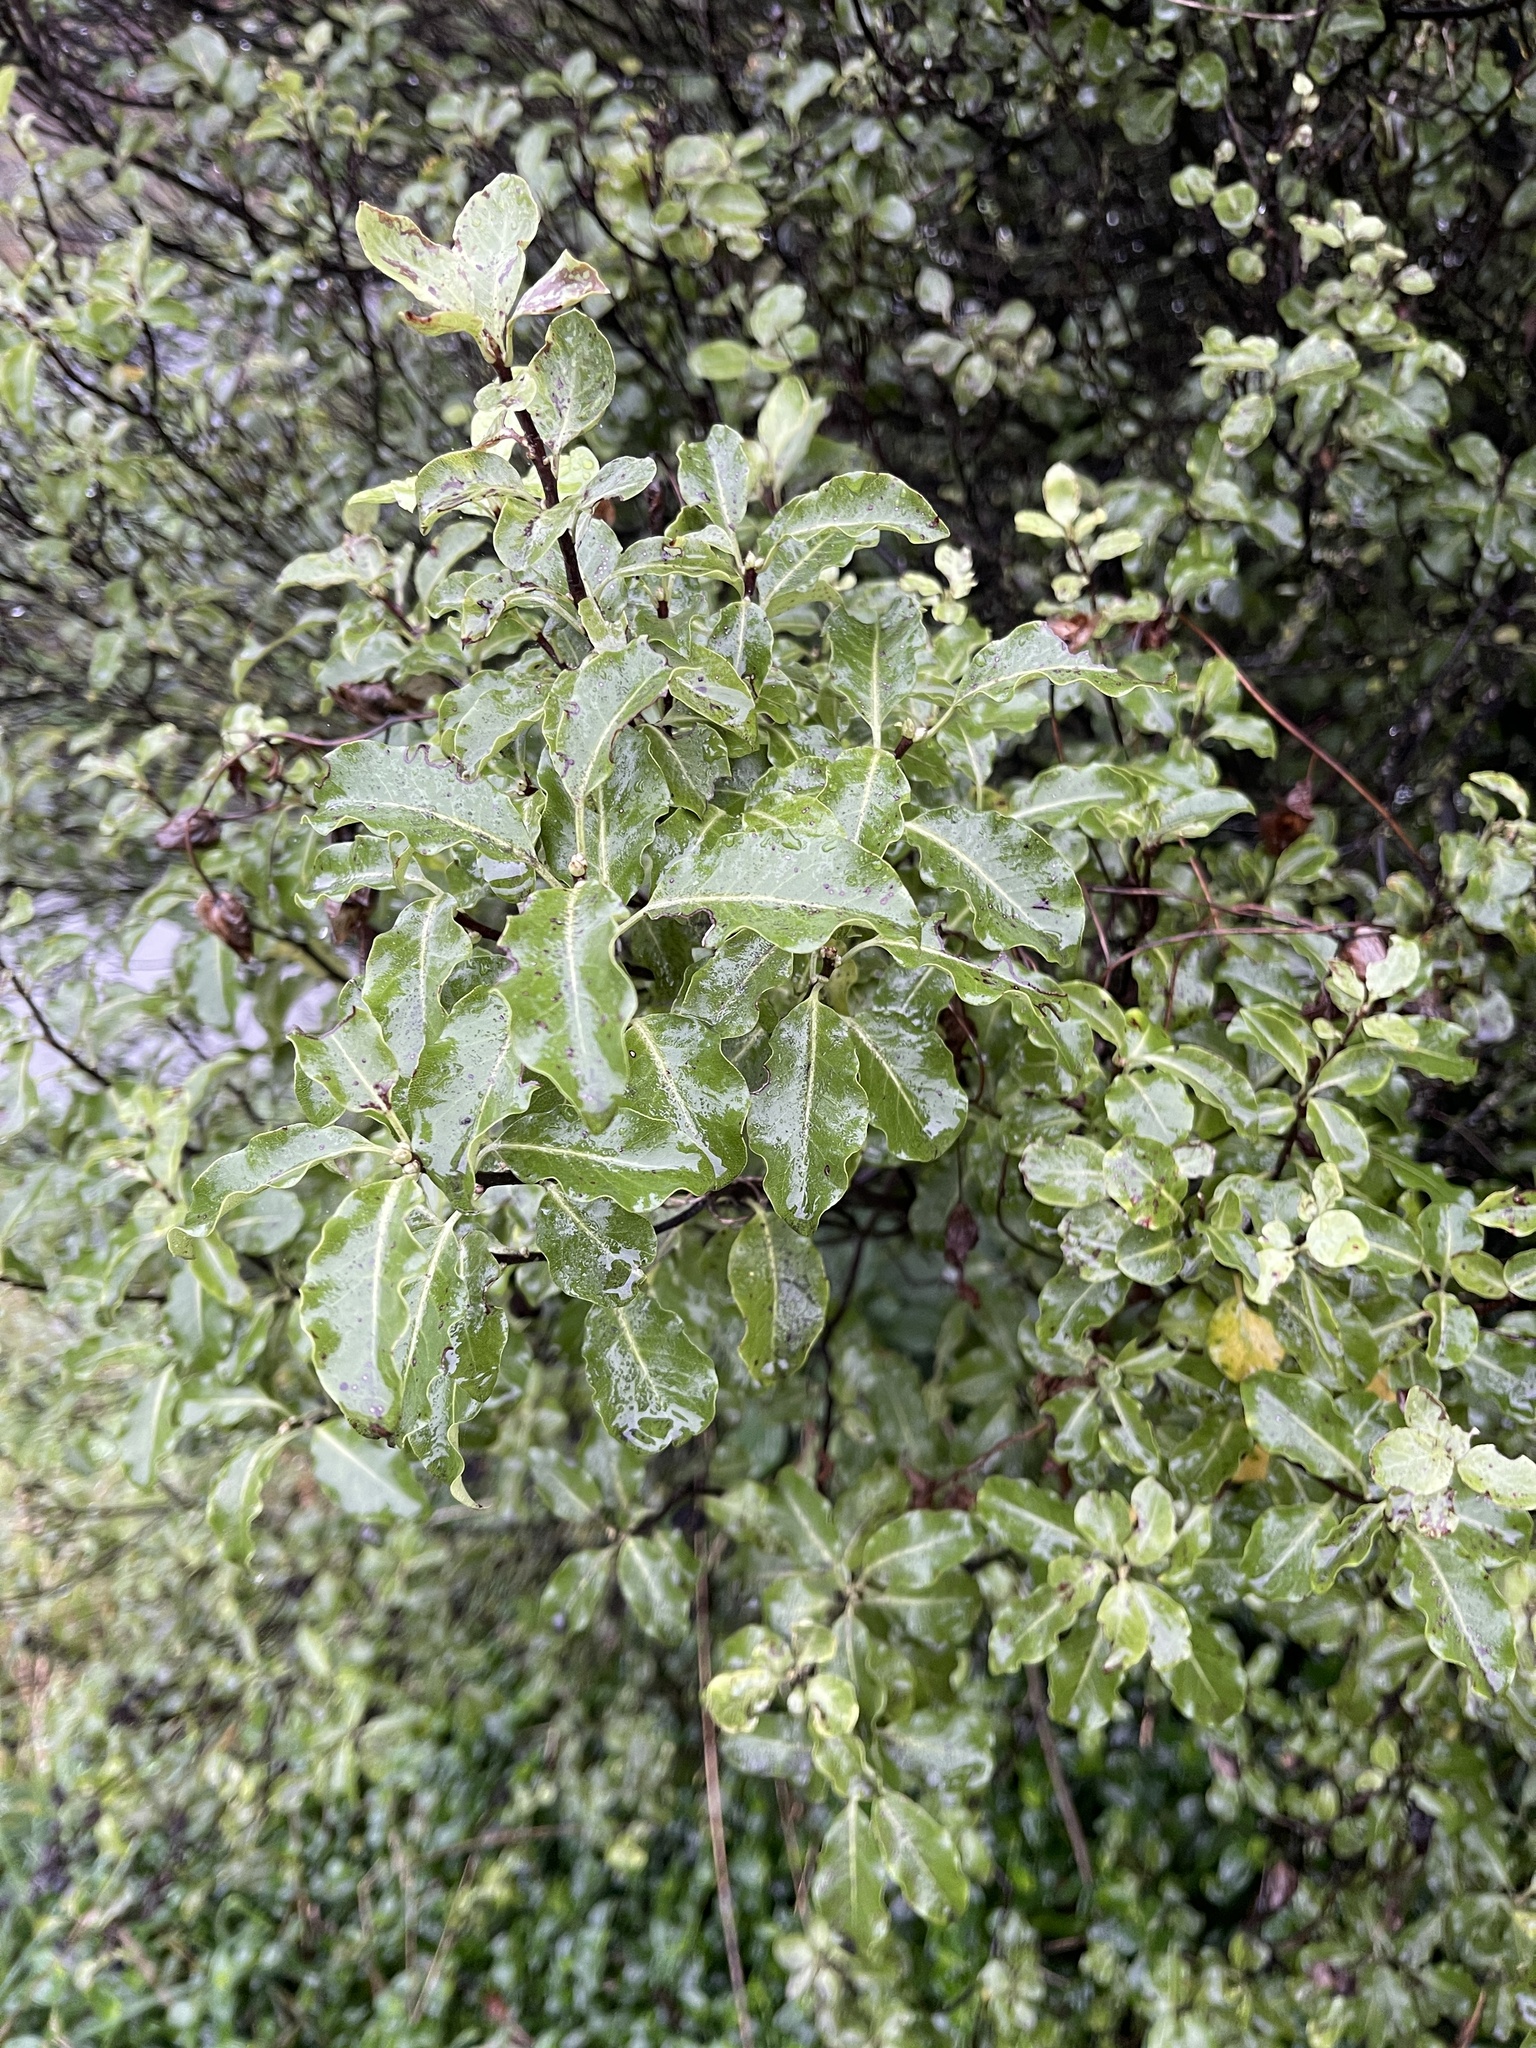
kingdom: Plantae
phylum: Tracheophyta
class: Magnoliopsida
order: Apiales
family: Pittosporaceae
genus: Pittosporum
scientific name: Pittosporum tenuifolium
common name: Kohuhu
